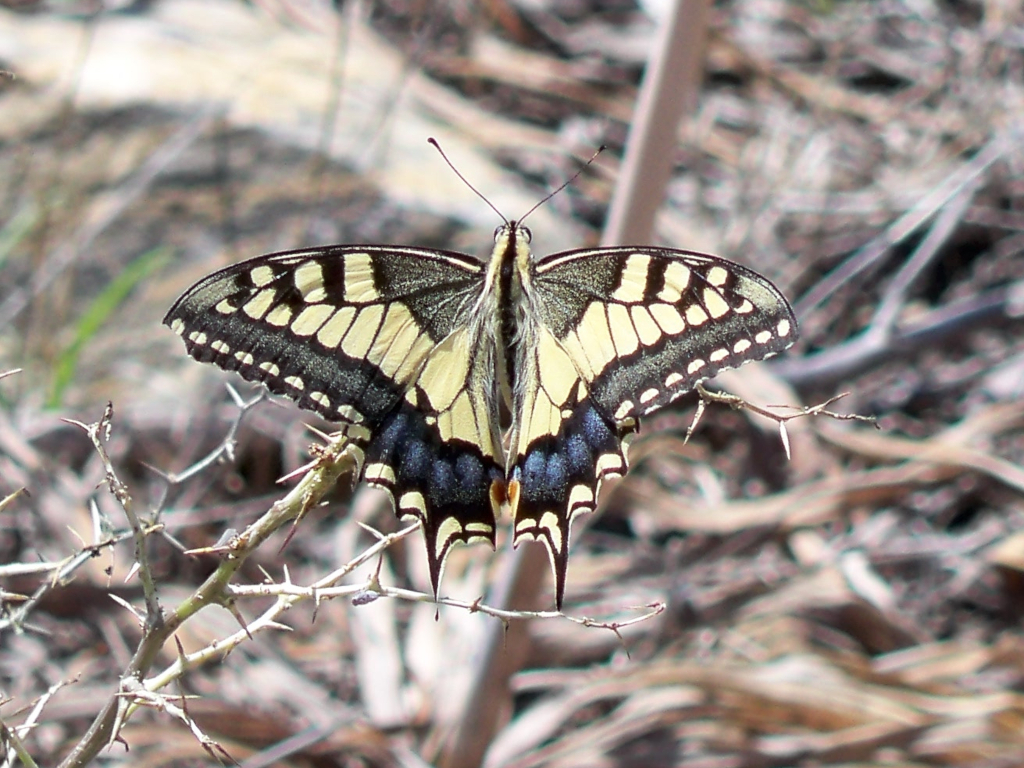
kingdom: Animalia
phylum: Arthropoda
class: Insecta
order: Lepidoptera
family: Papilionidae
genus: Papilio
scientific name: Papilio machaon
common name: Swallowtail
